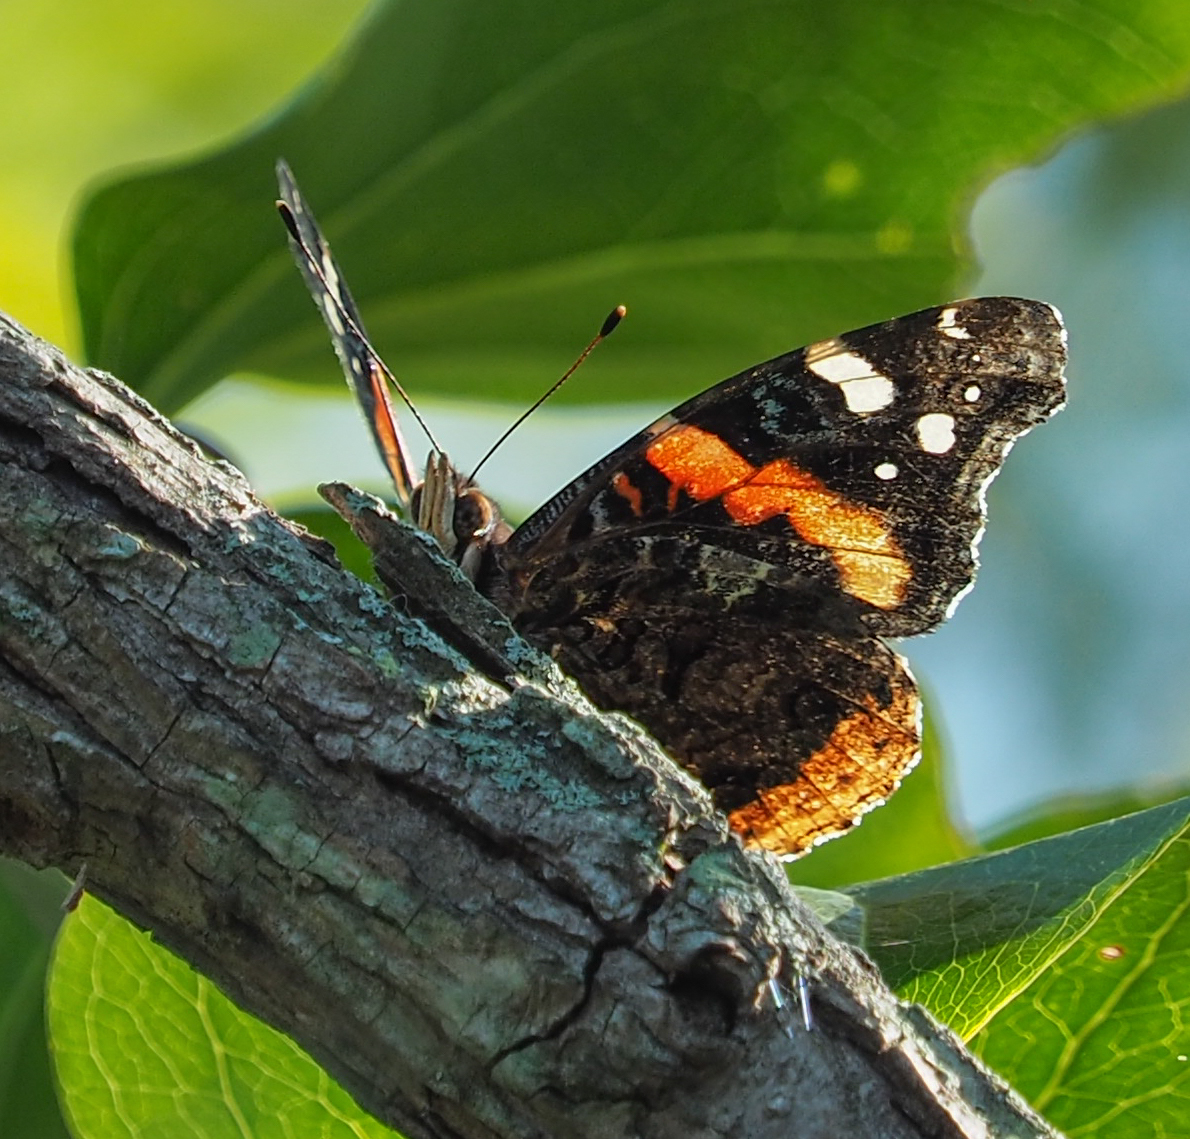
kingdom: Animalia
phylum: Arthropoda
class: Insecta
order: Lepidoptera
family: Nymphalidae
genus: Vanessa
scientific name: Vanessa atalanta
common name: Red admiral
